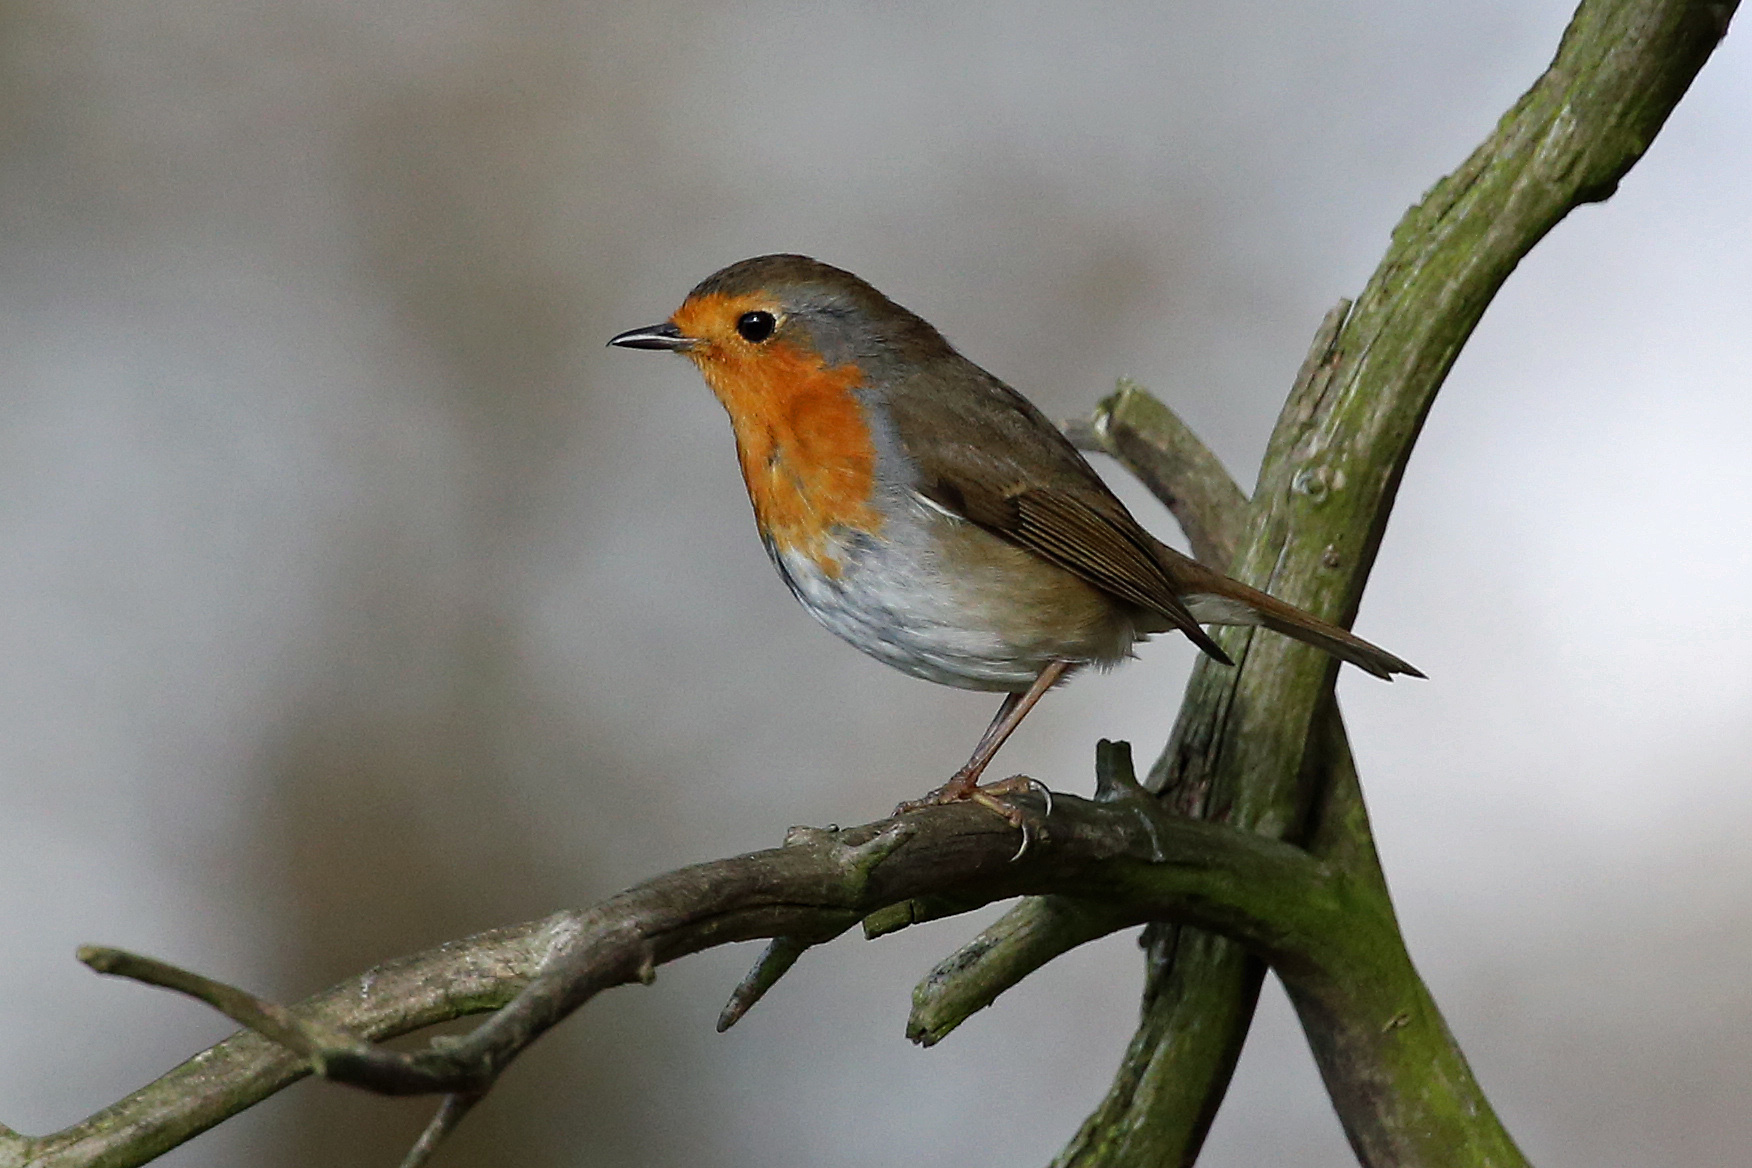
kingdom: Animalia
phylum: Chordata
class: Aves
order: Passeriformes
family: Muscicapidae
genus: Erithacus
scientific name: Erithacus rubecula
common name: European robin
